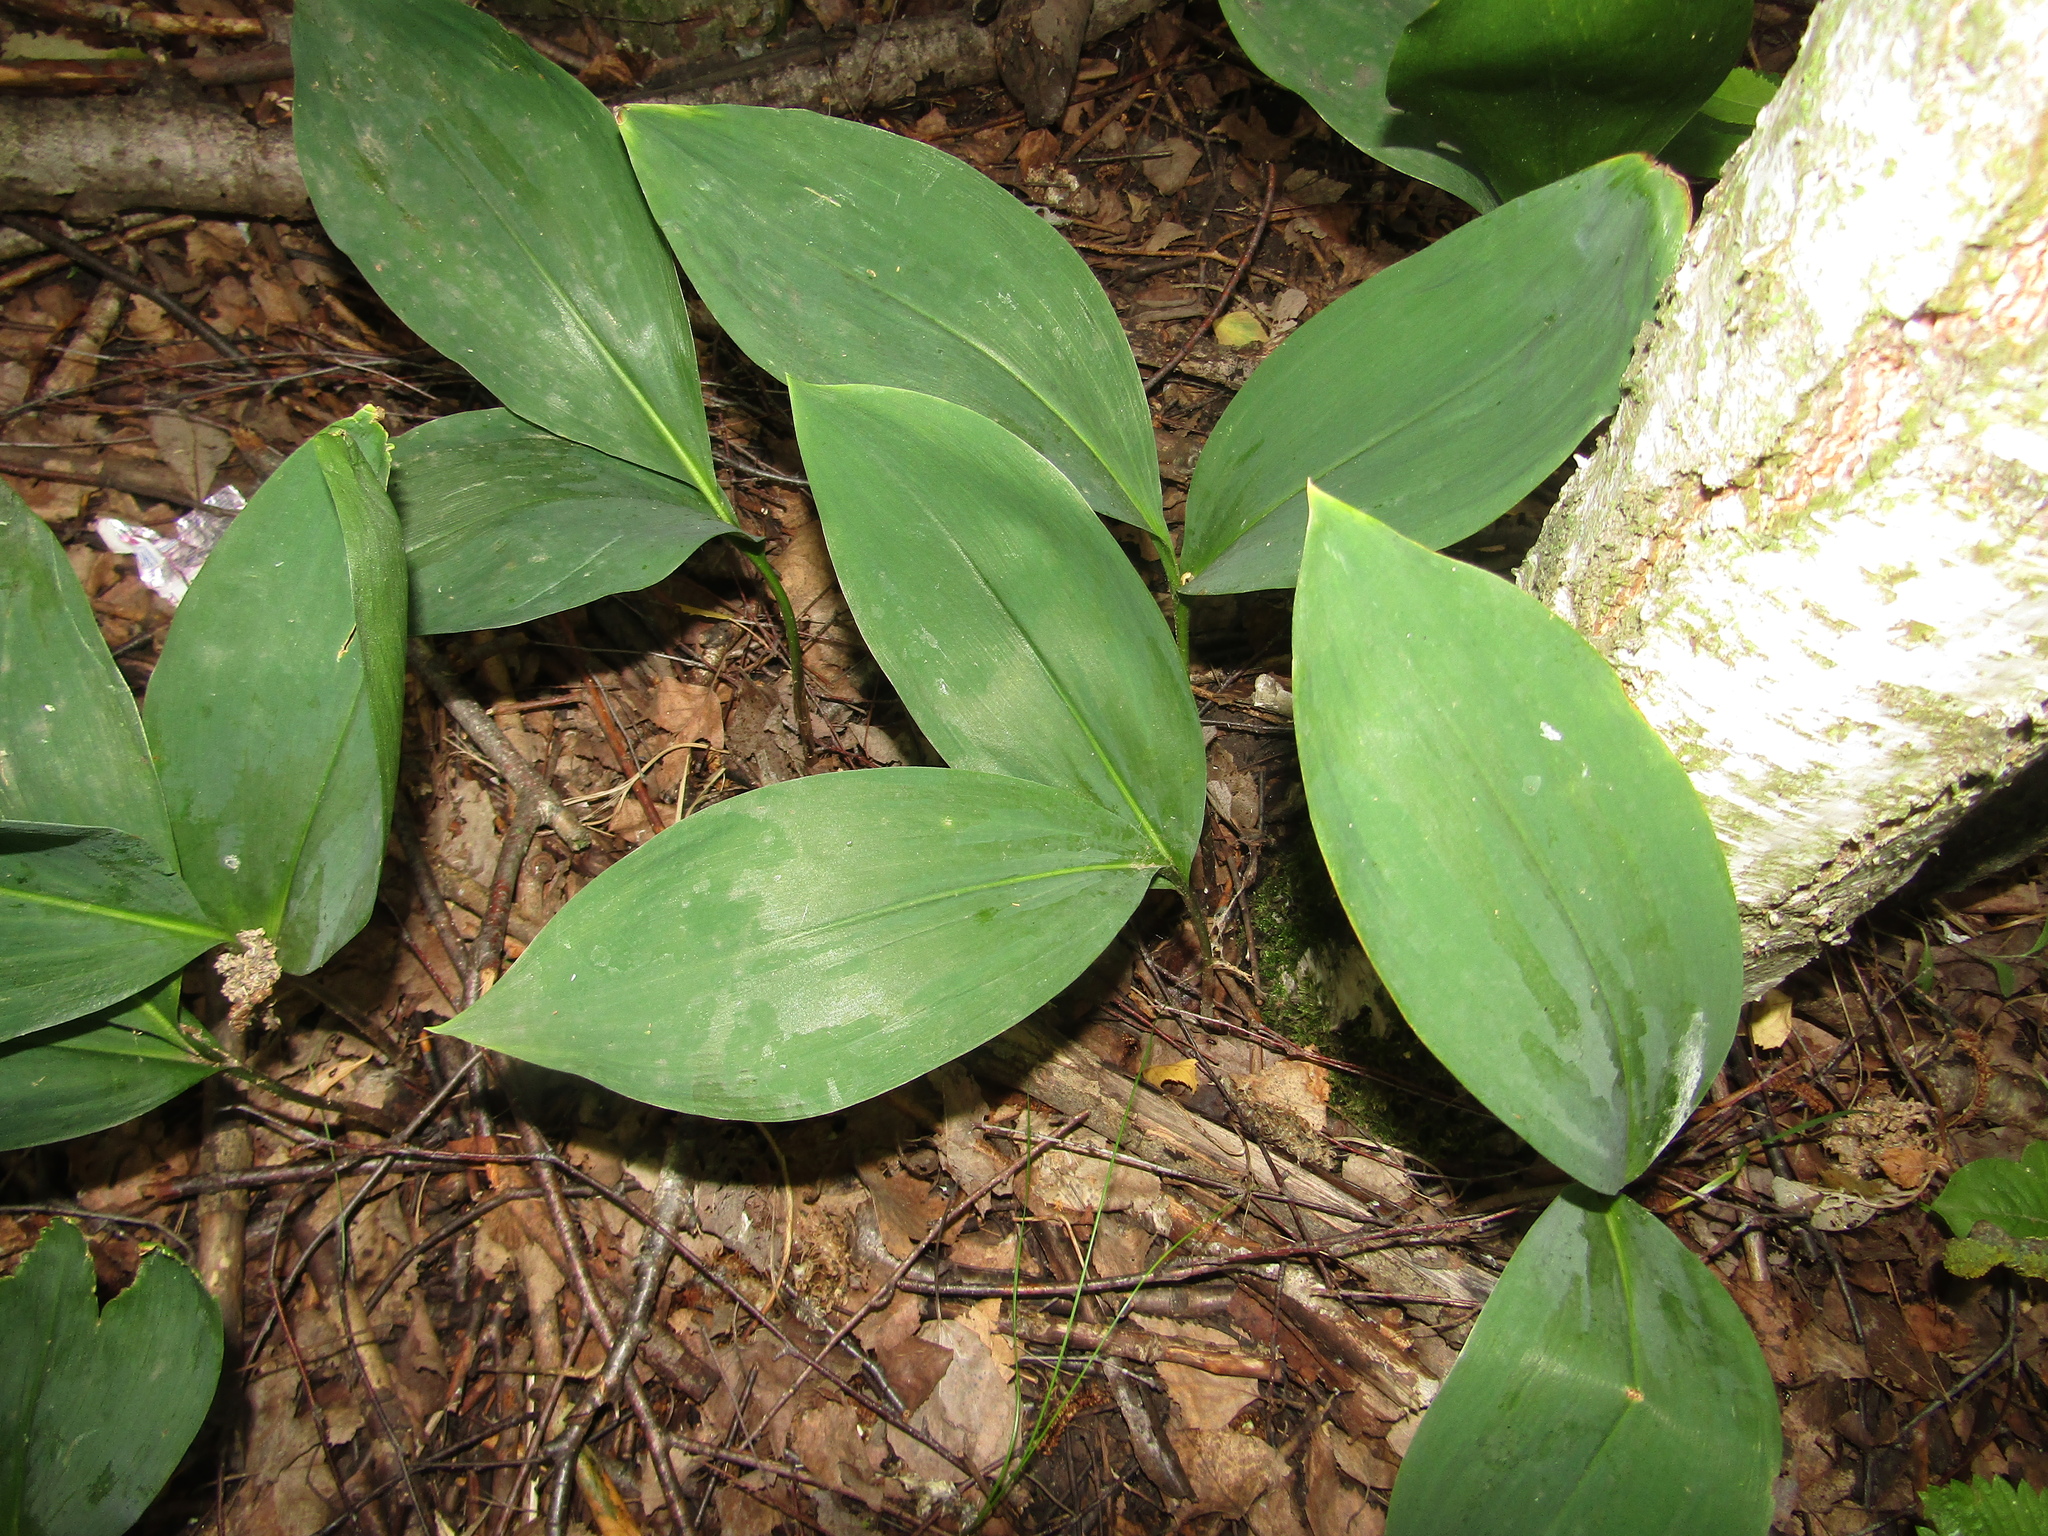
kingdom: Plantae
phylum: Tracheophyta
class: Liliopsida
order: Asparagales
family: Asparagaceae
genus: Convallaria
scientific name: Convallaria majalis
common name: Lily-of-the-valley
